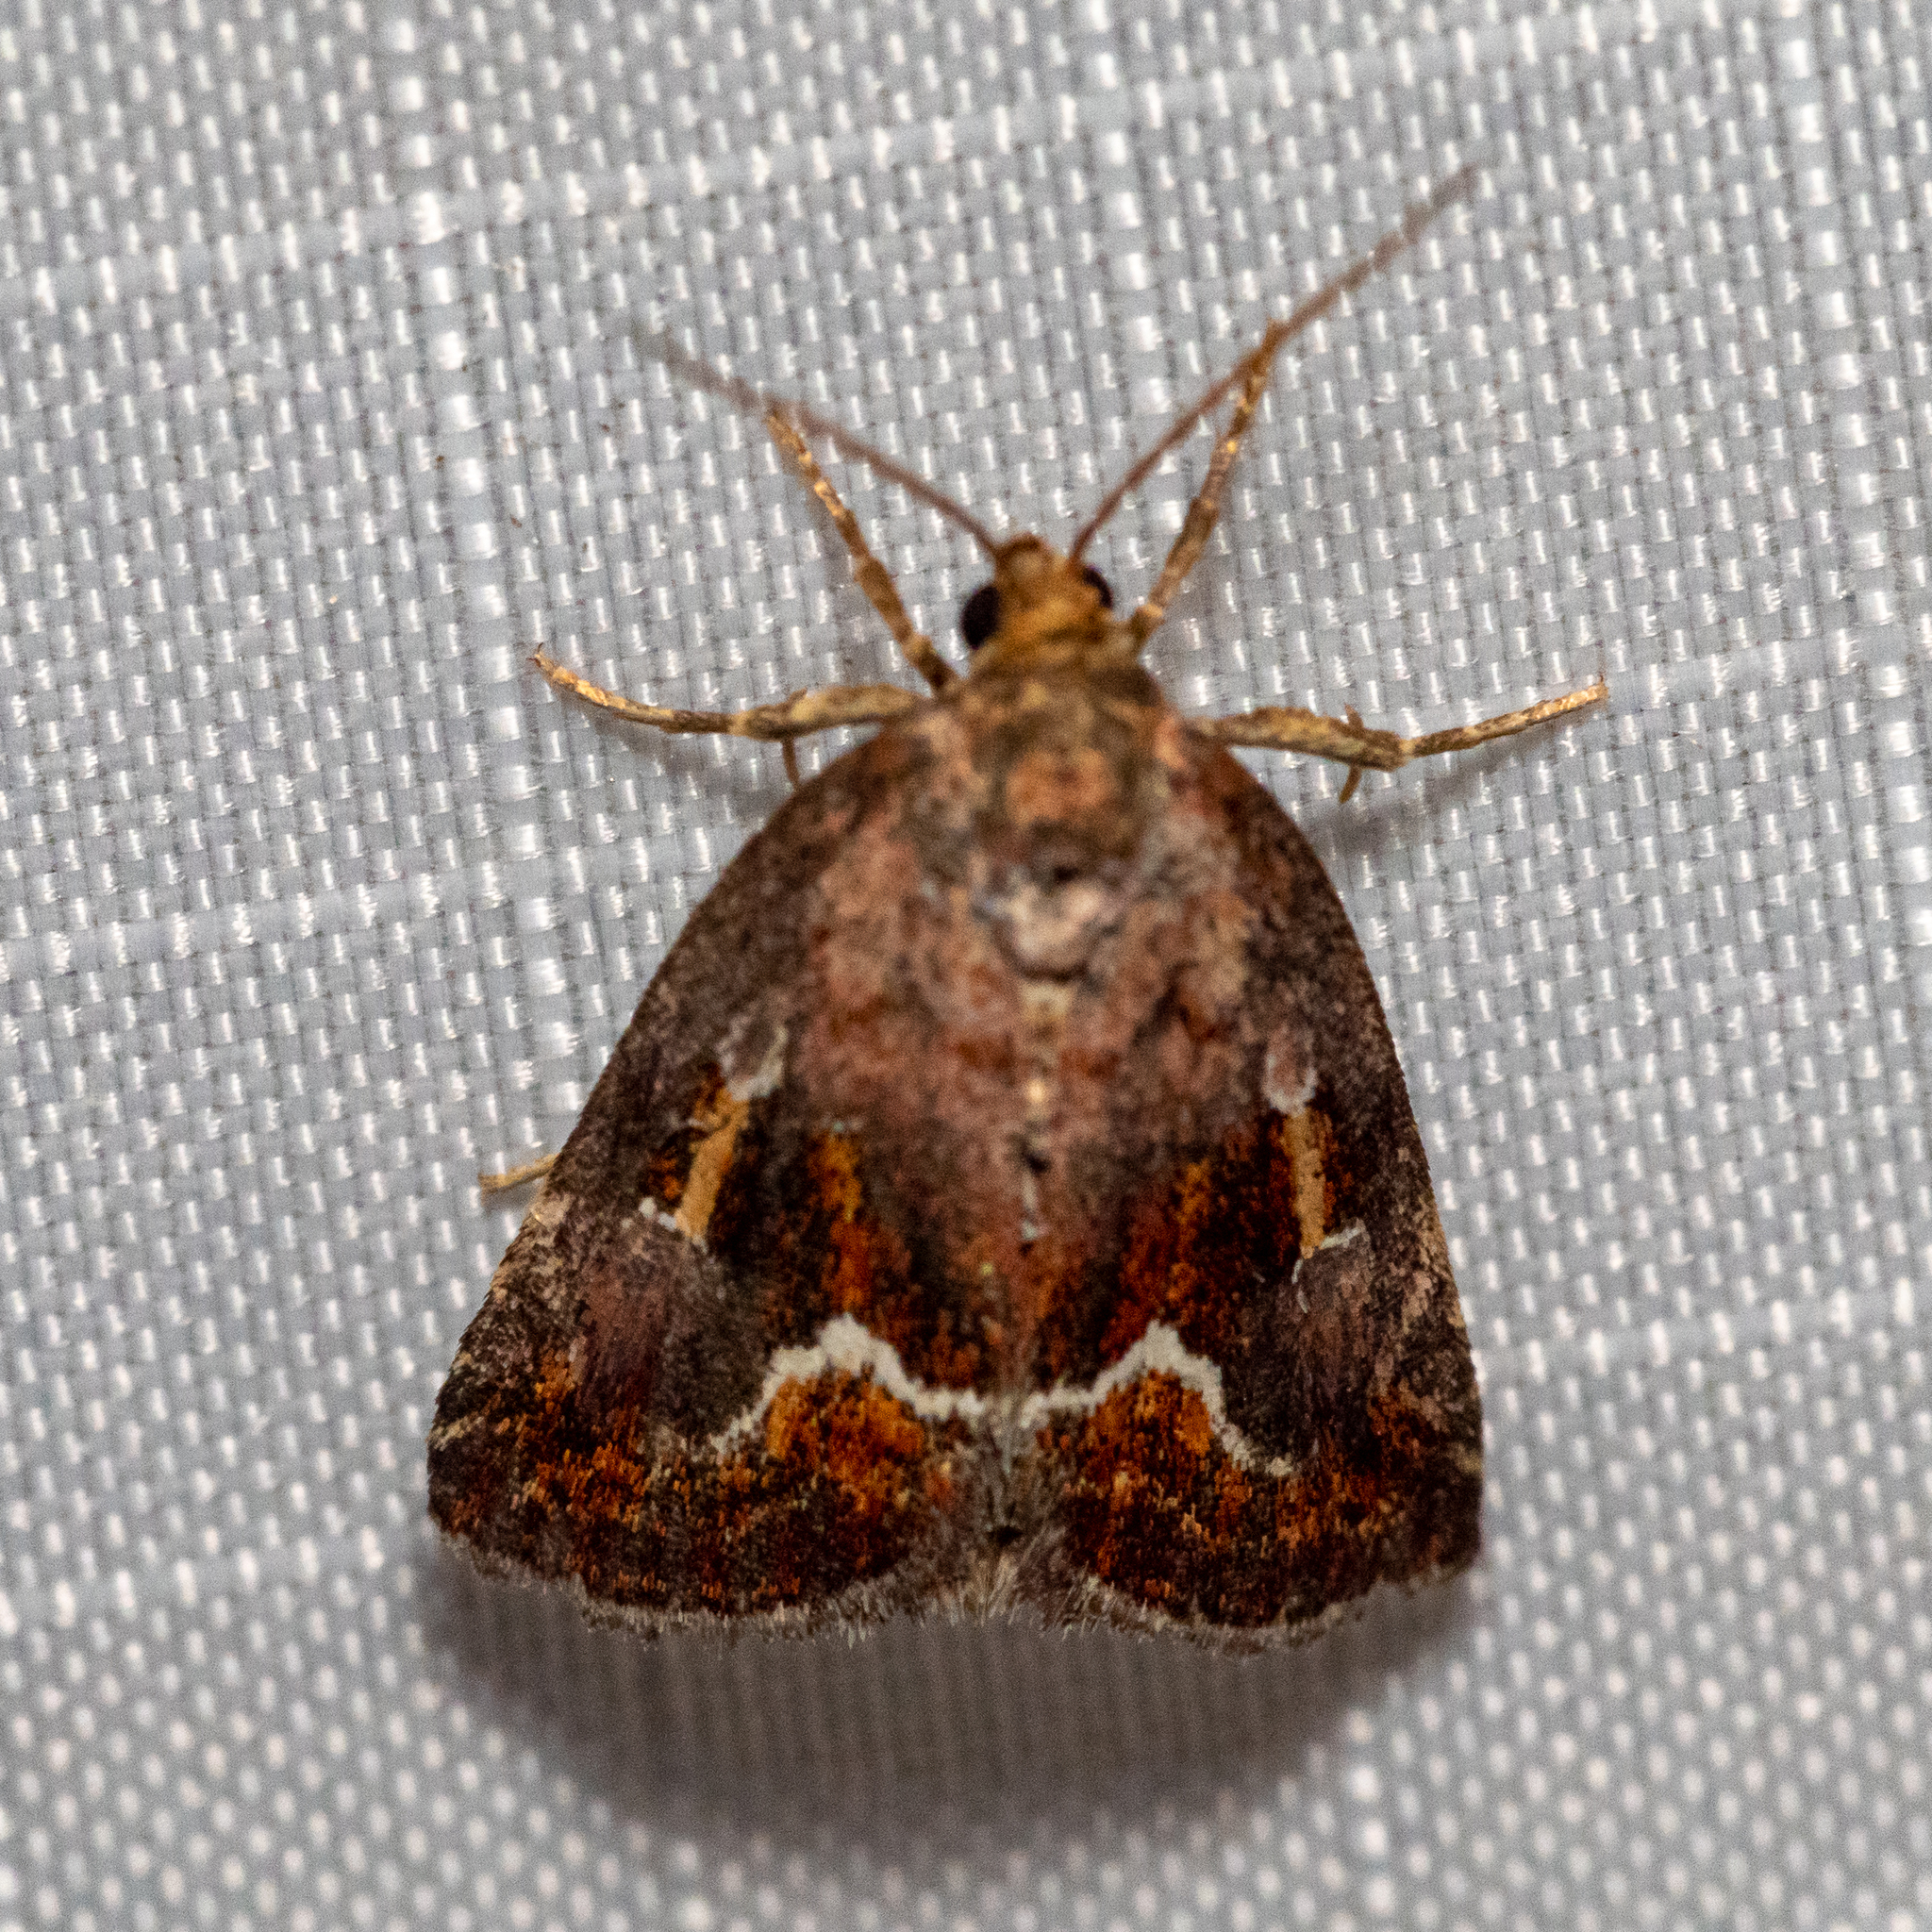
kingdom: Animalia
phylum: Arthropoda
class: Insecta
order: Lepidoptera
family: Noctuidae
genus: Deltote
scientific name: Deltote bellicula
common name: Bog glyph
